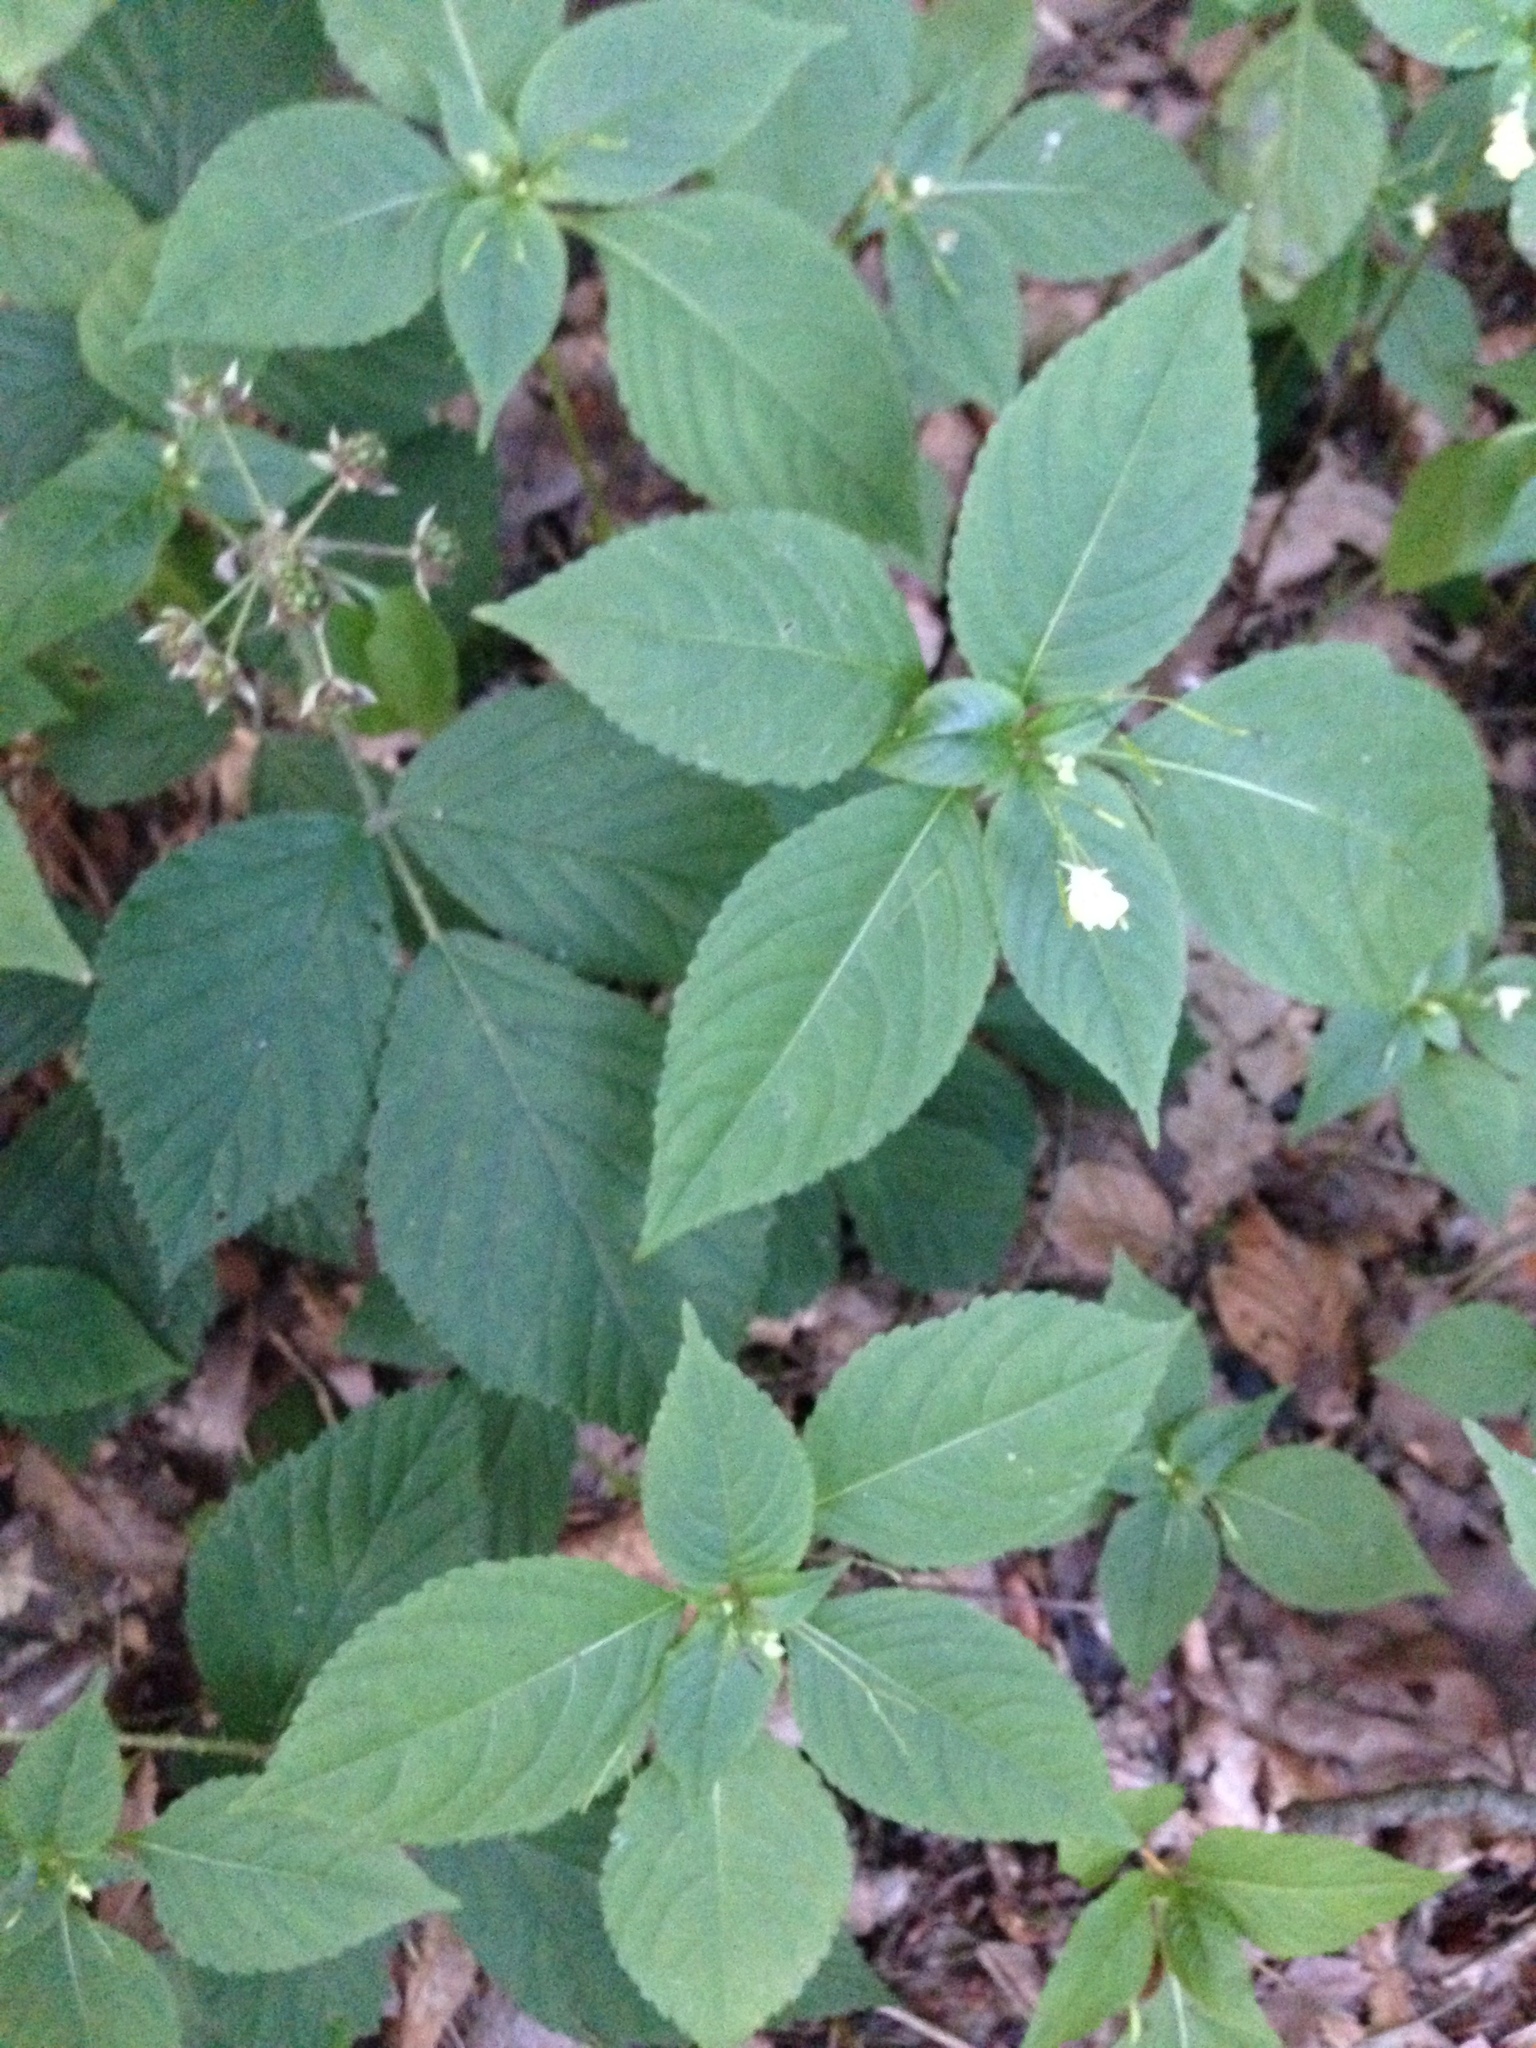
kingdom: Plantae
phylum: Tracheophyta
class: Magnoliopsida
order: Ericales
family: Balsaminaceae
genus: Impatiens
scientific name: Impatiens parviflora
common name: Small balsam
